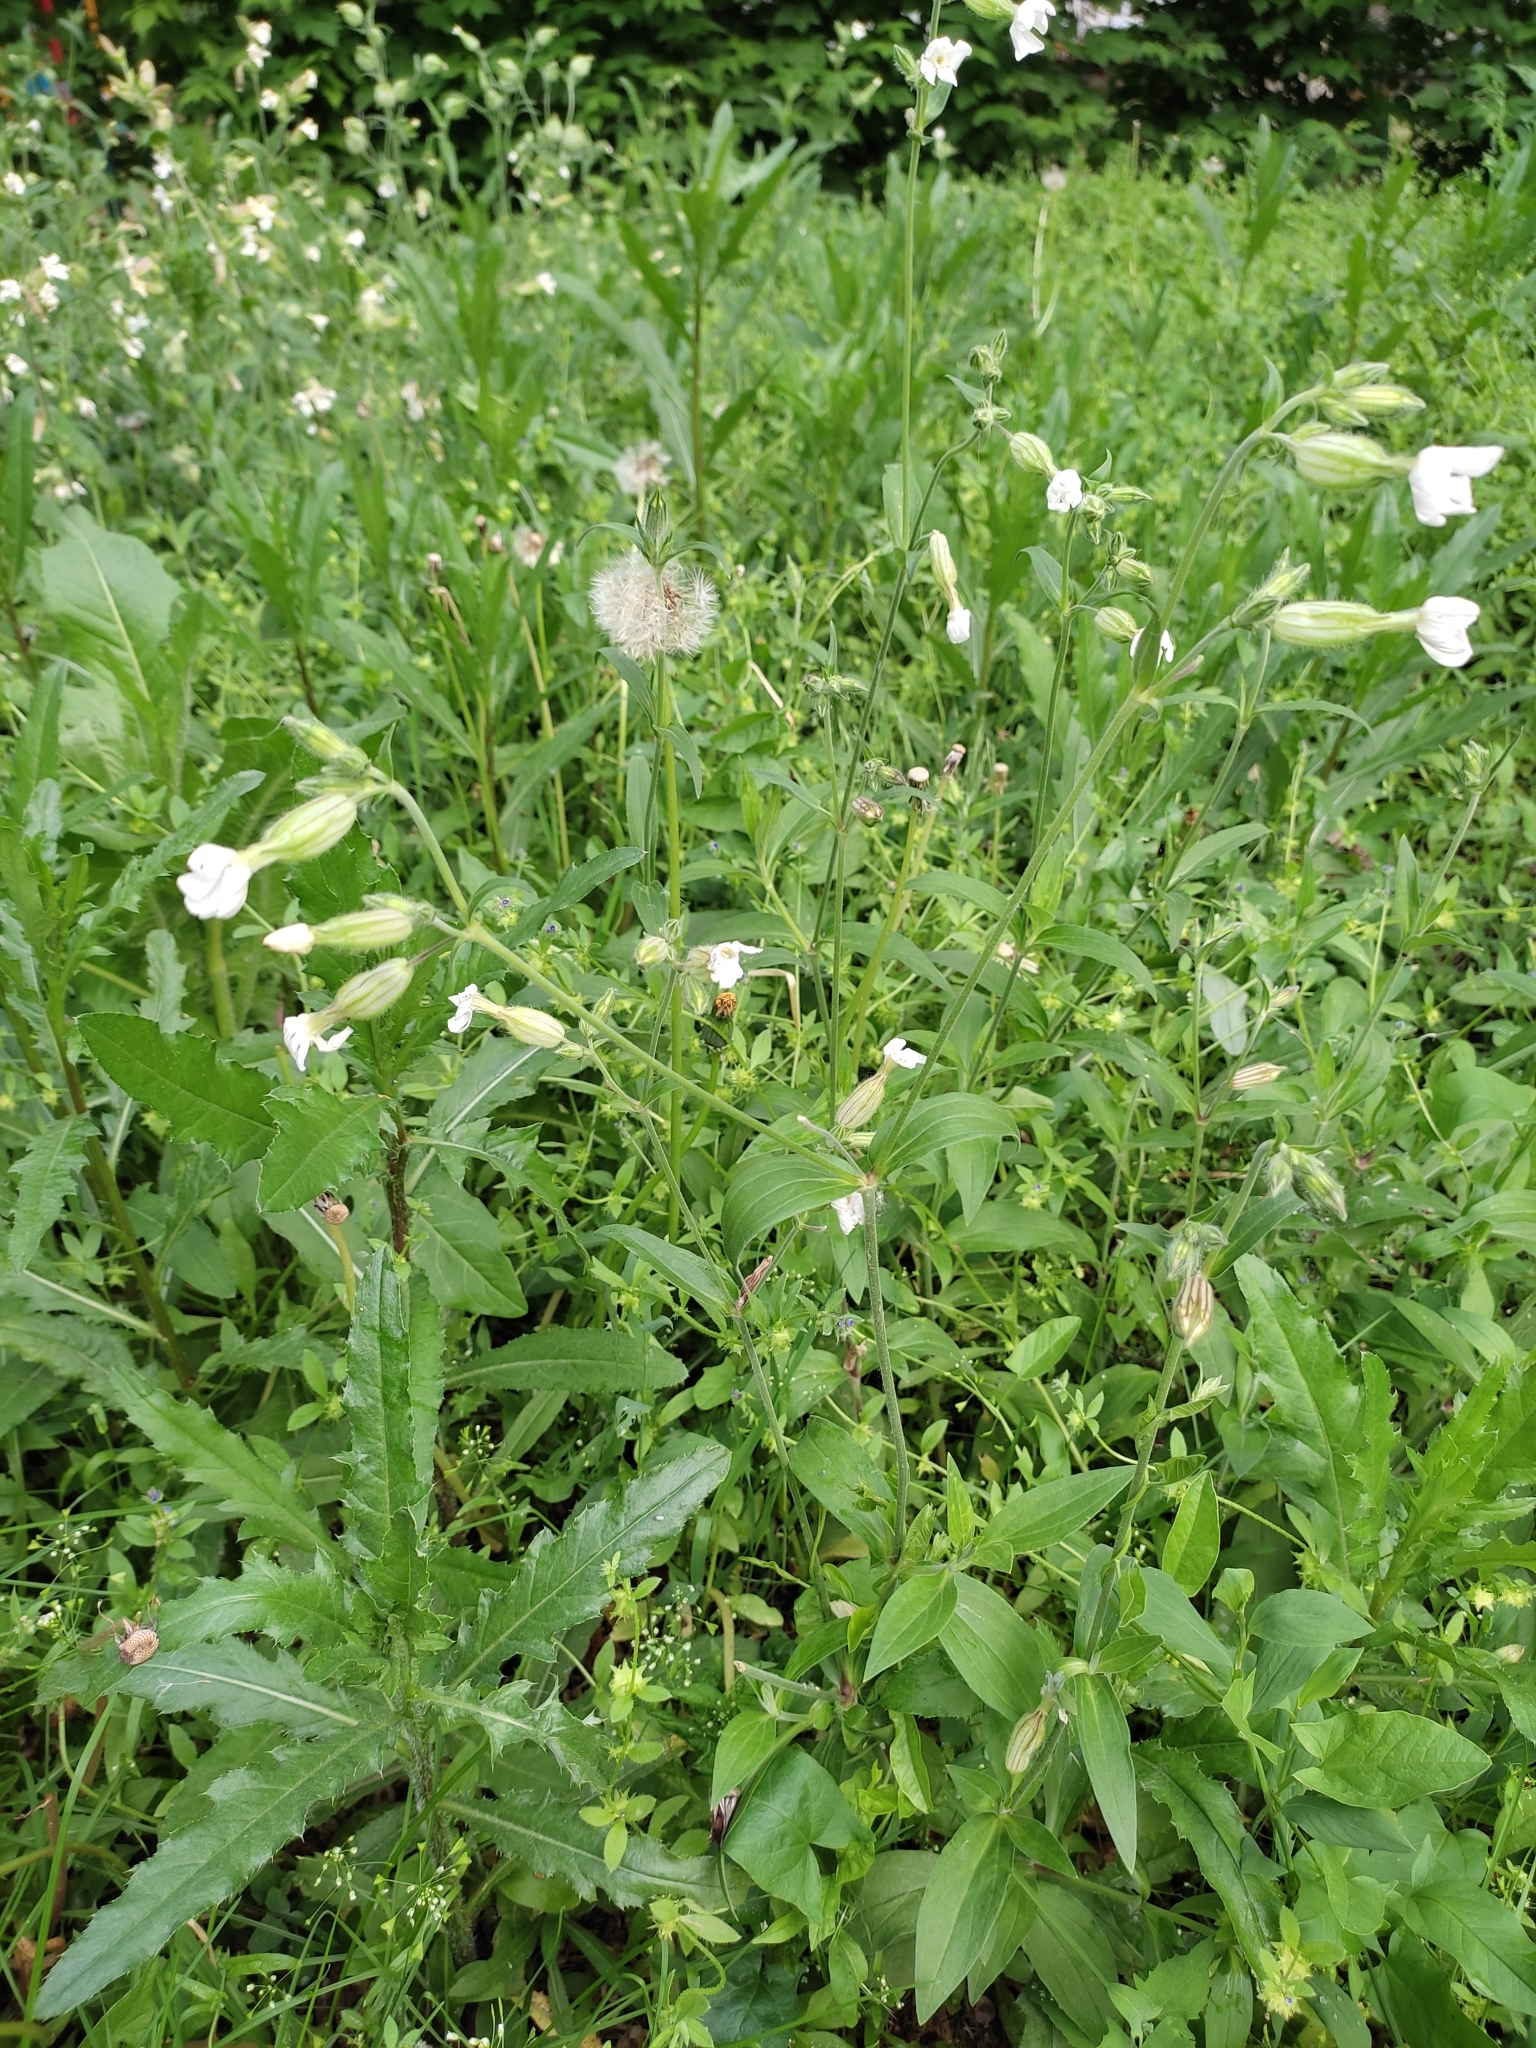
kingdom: Plantae
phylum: Tracheophyta
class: Magnoliopsida
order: Caryophyllales
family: Caryophyllaceae
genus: Silene
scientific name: Silene latifolia
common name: White campion
